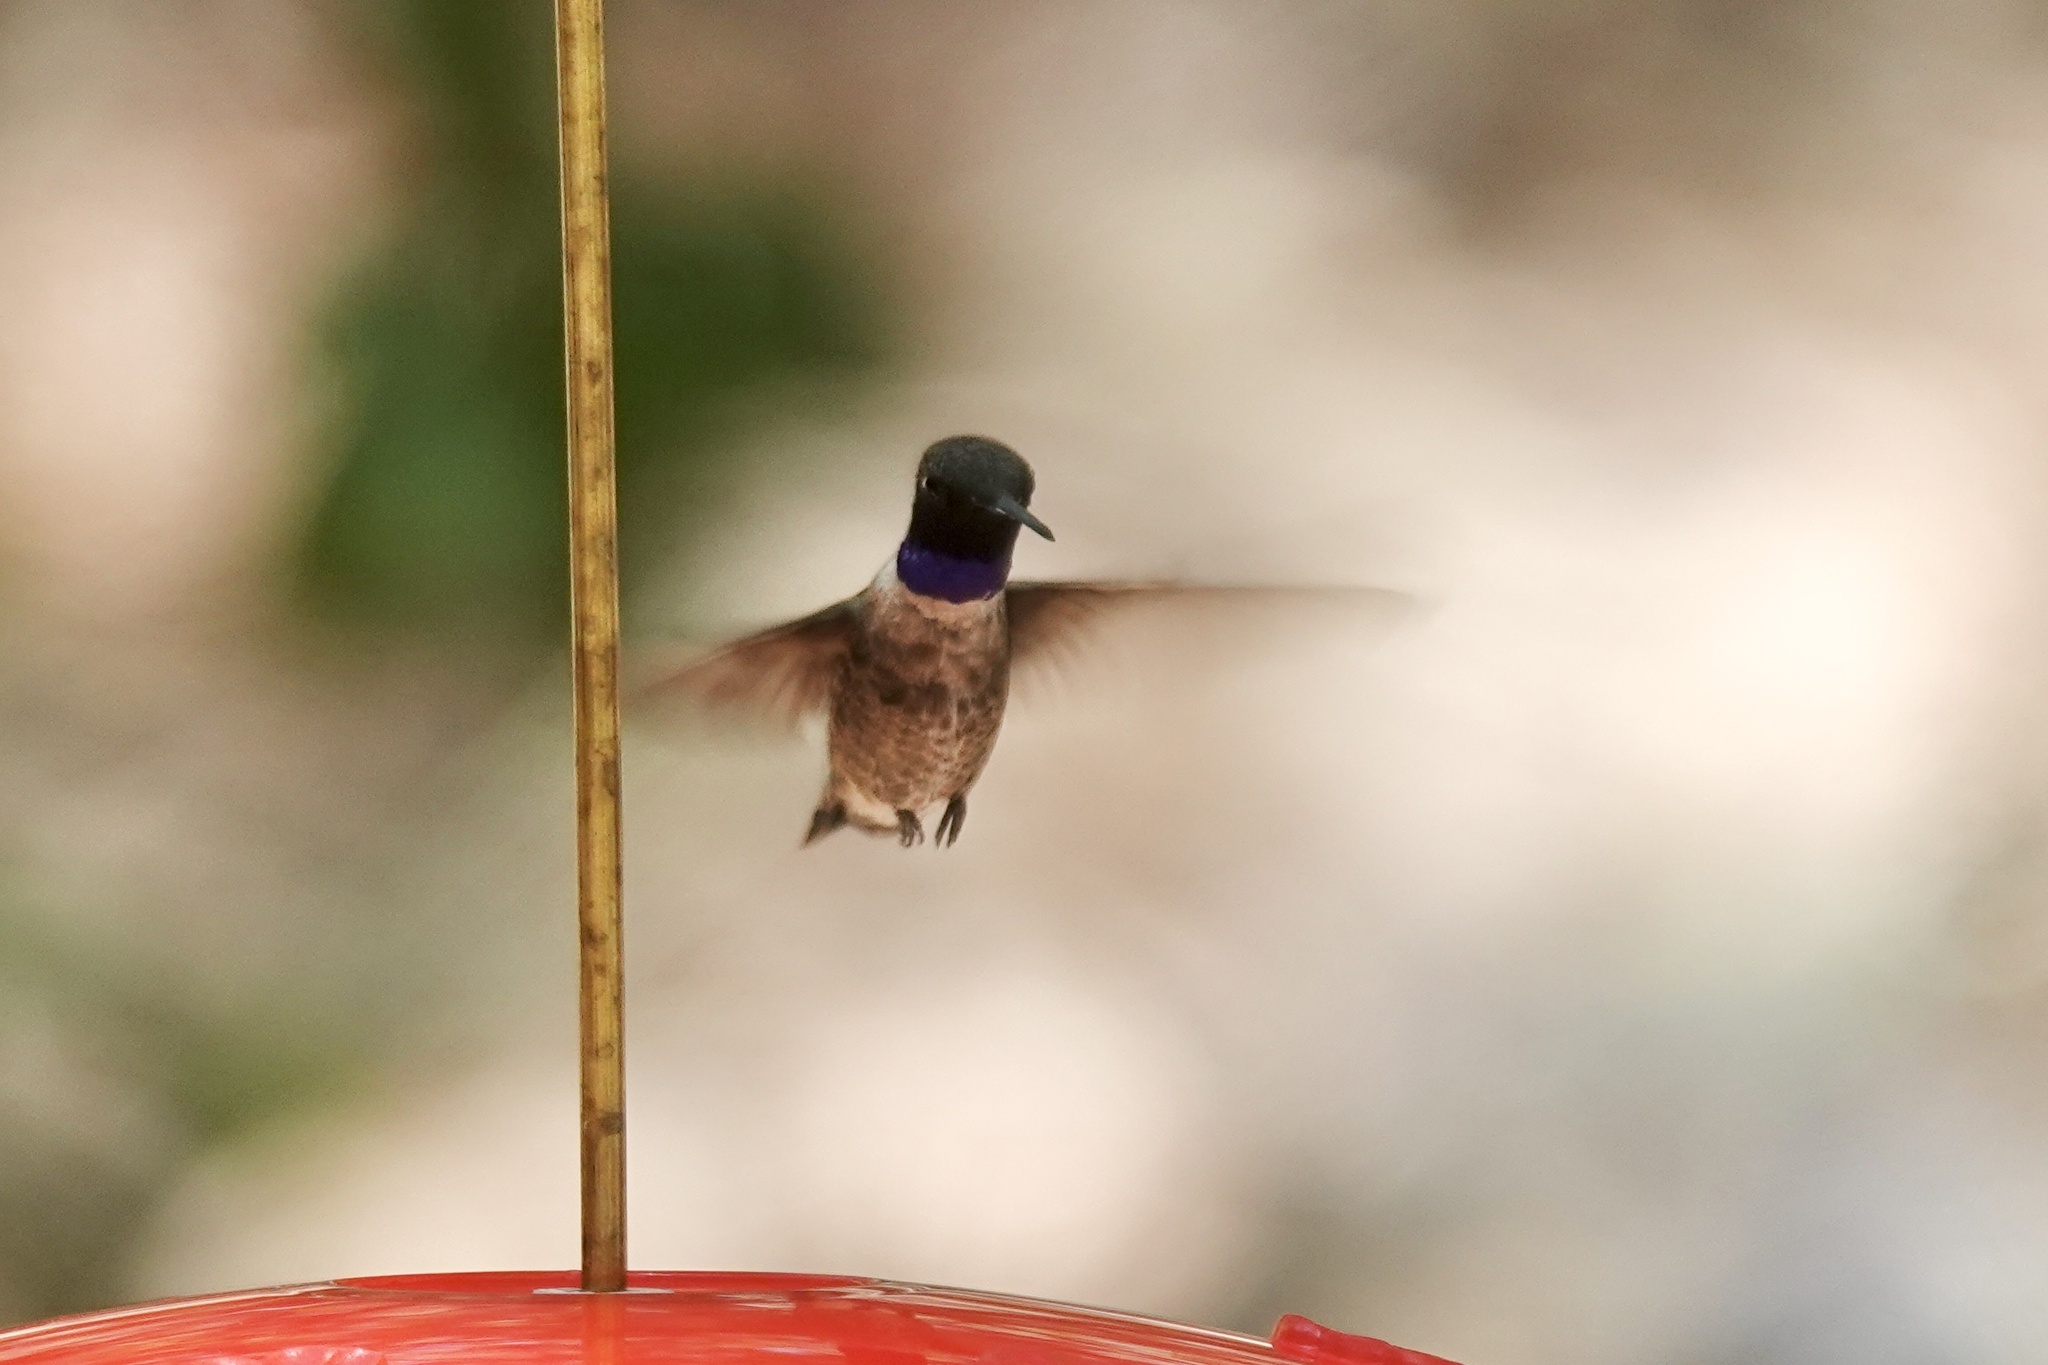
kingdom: Animalia
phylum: Chordata
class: Aves
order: Apodiformes
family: Trochilidae
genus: Archilochus
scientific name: Archilochus alexandri
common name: Black-chinned hummingbird
